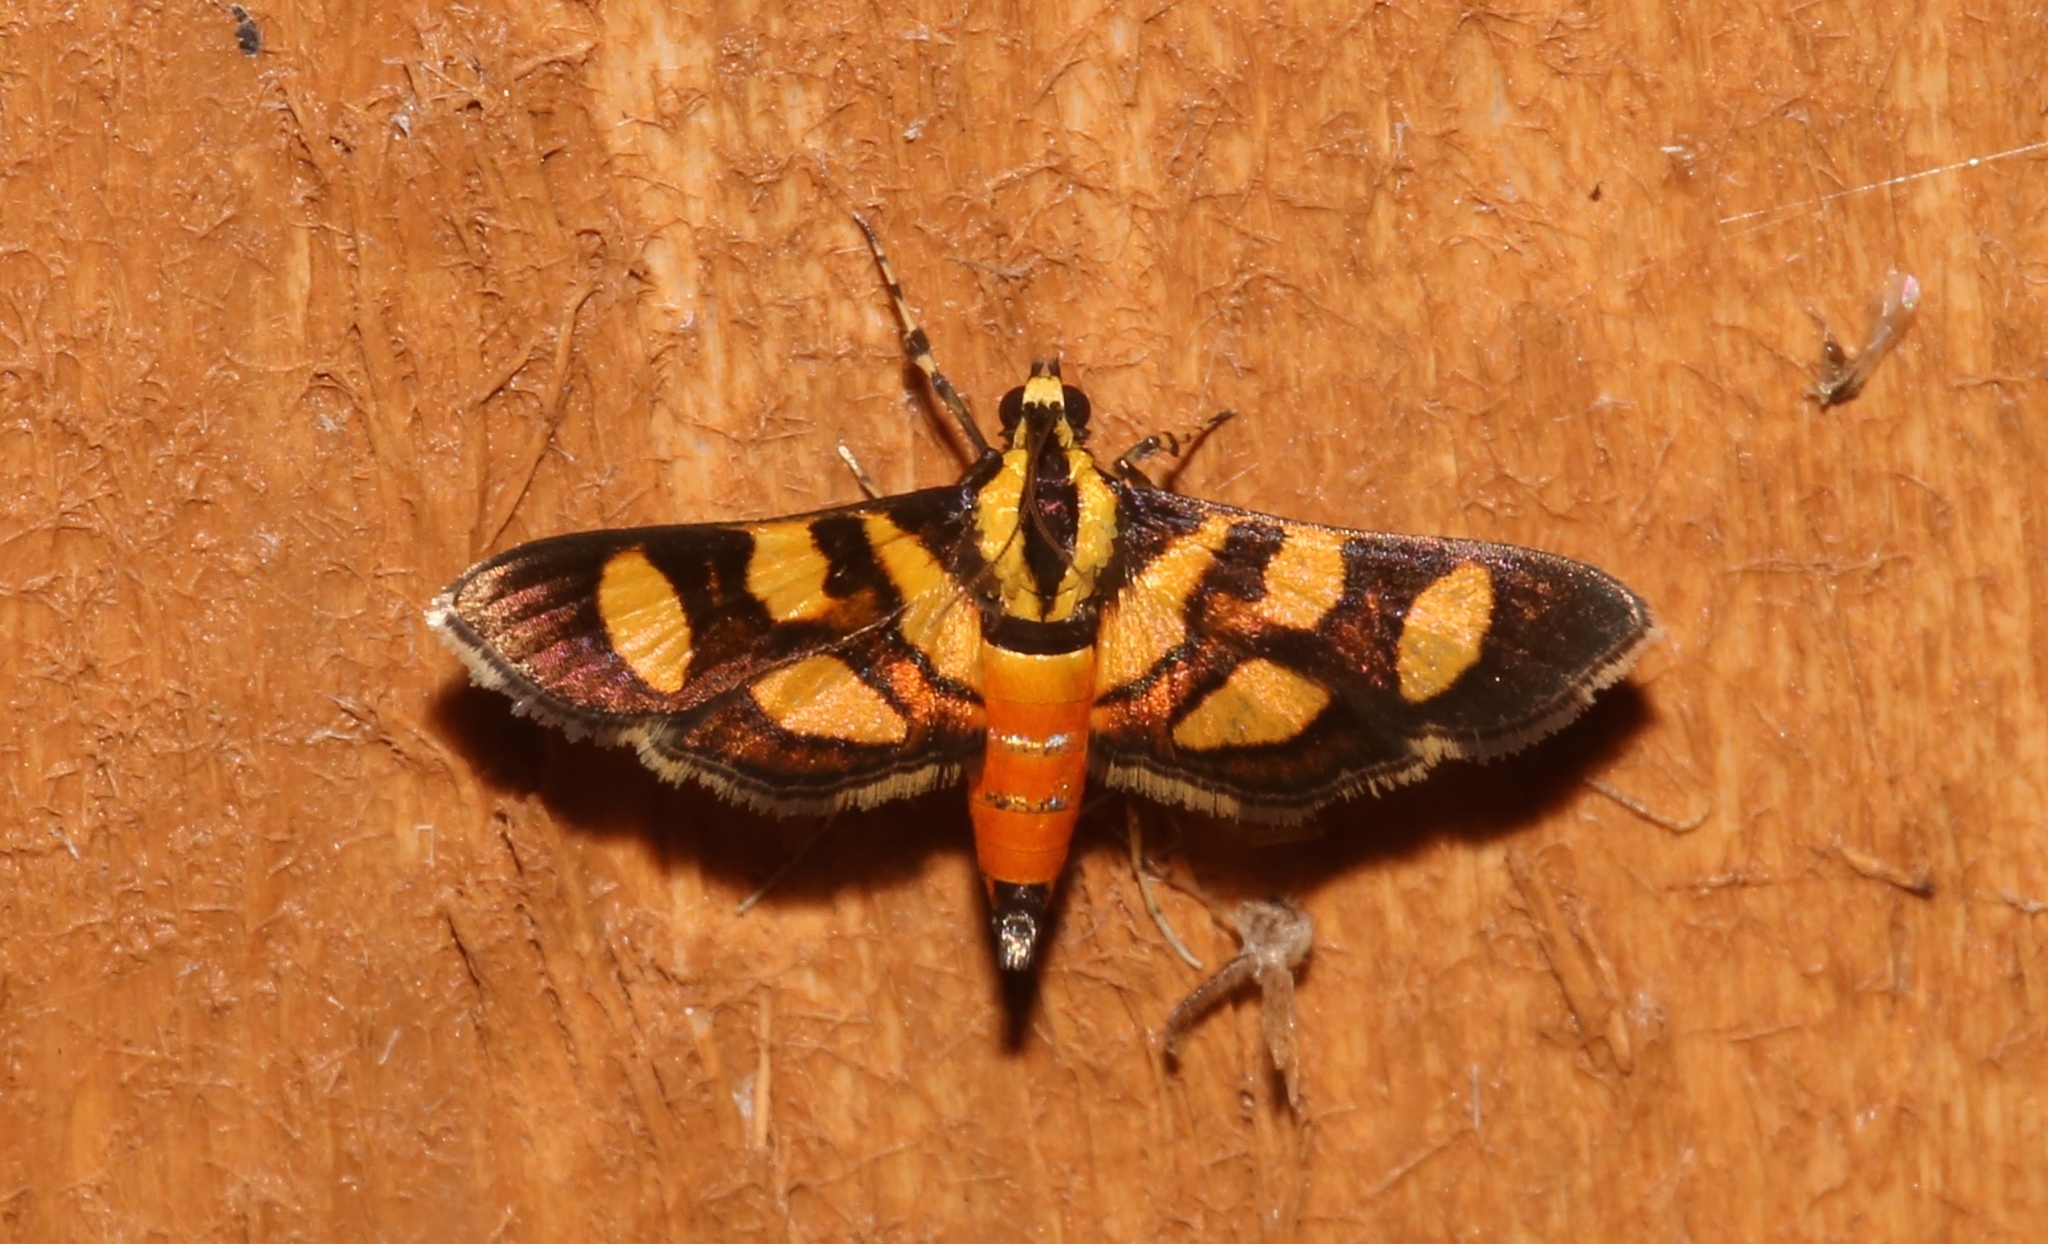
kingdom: Animalia
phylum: Arthropoda
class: Insecta
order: Lepidoptera
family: Crambidae
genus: Syngamia
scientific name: Syngamia florella
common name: Orange-spotted flower moth
